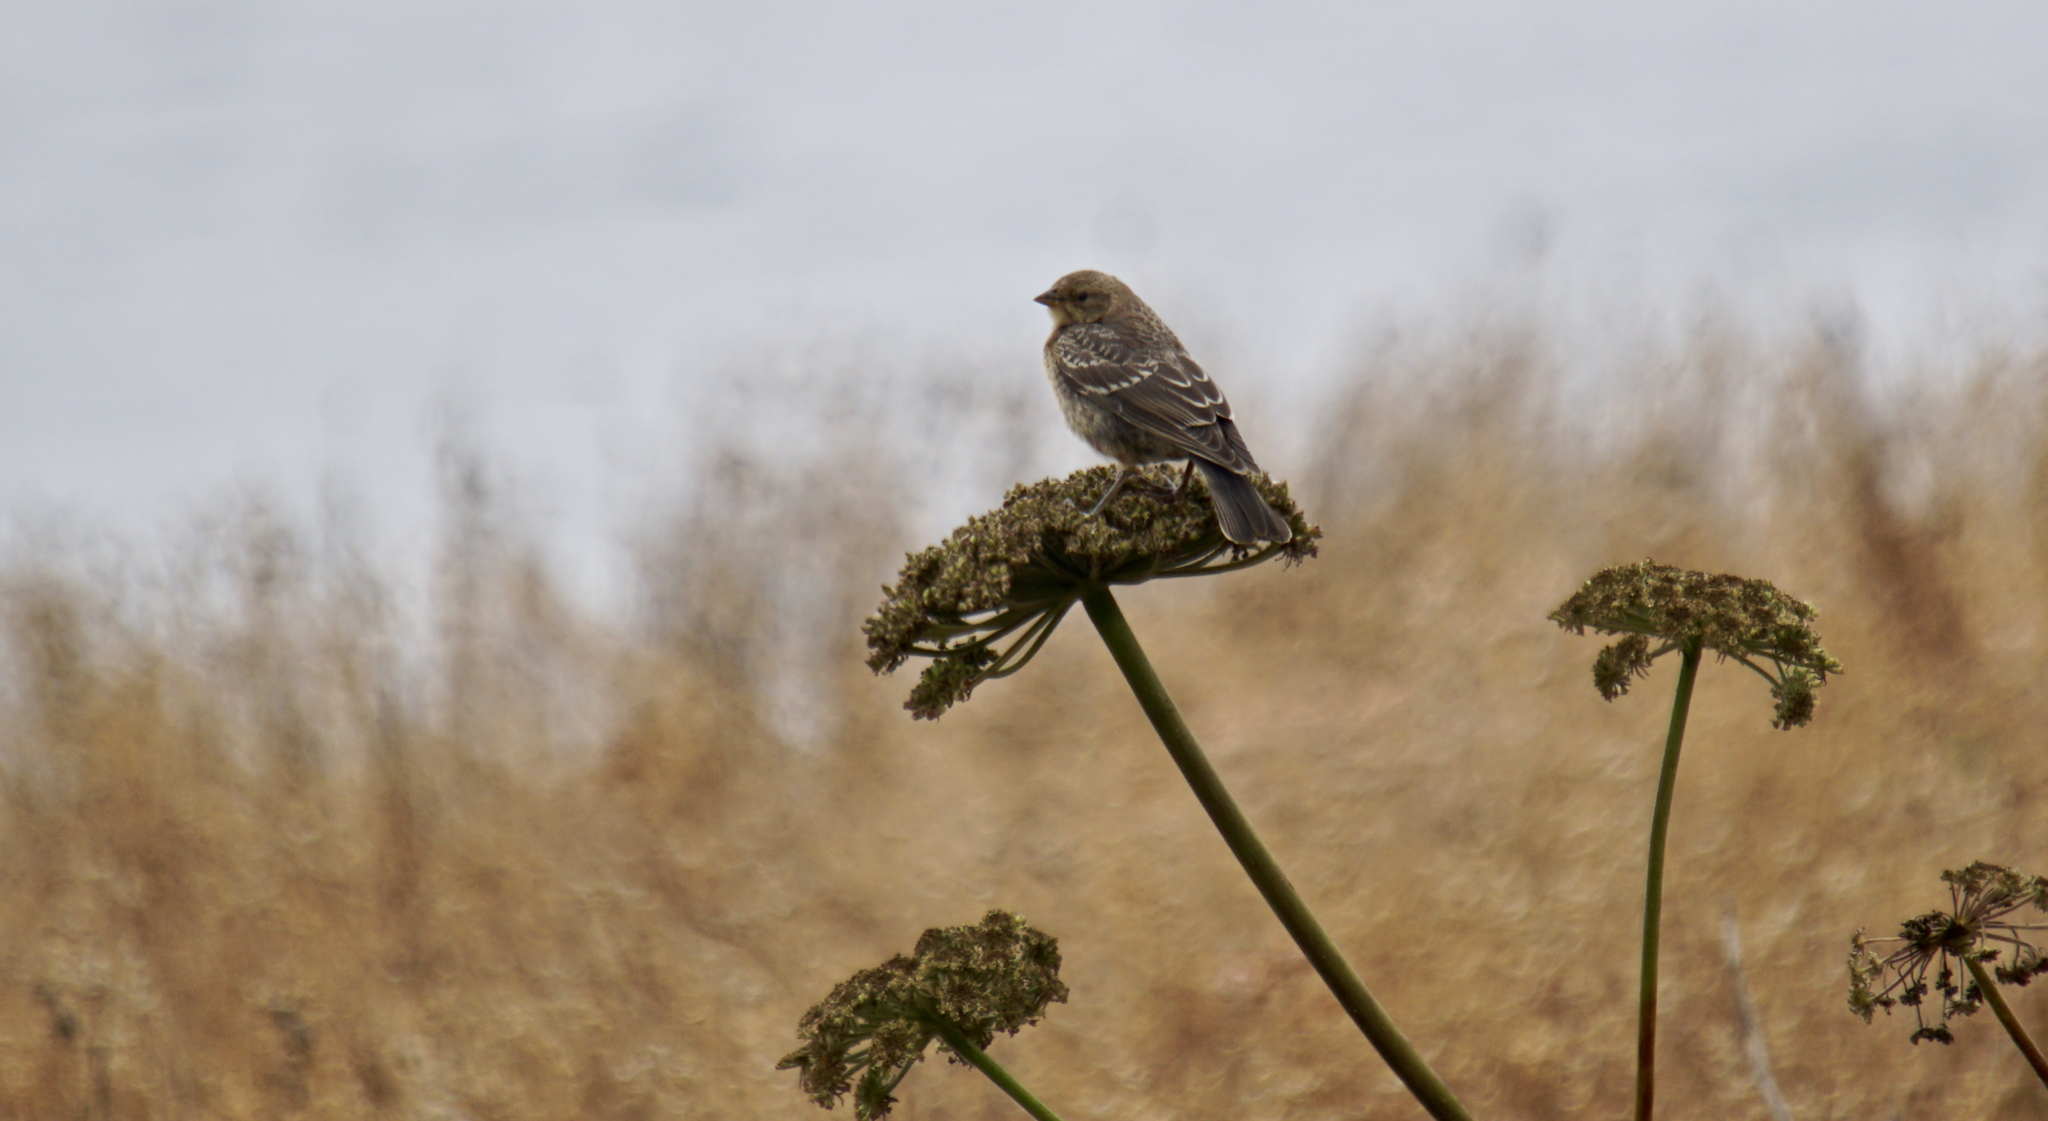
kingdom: Animalia
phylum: Chordata
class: Aves
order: Passeriformes
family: Icteridae
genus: Molothrus
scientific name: Molothrus ater
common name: Brown-headed cowbird
